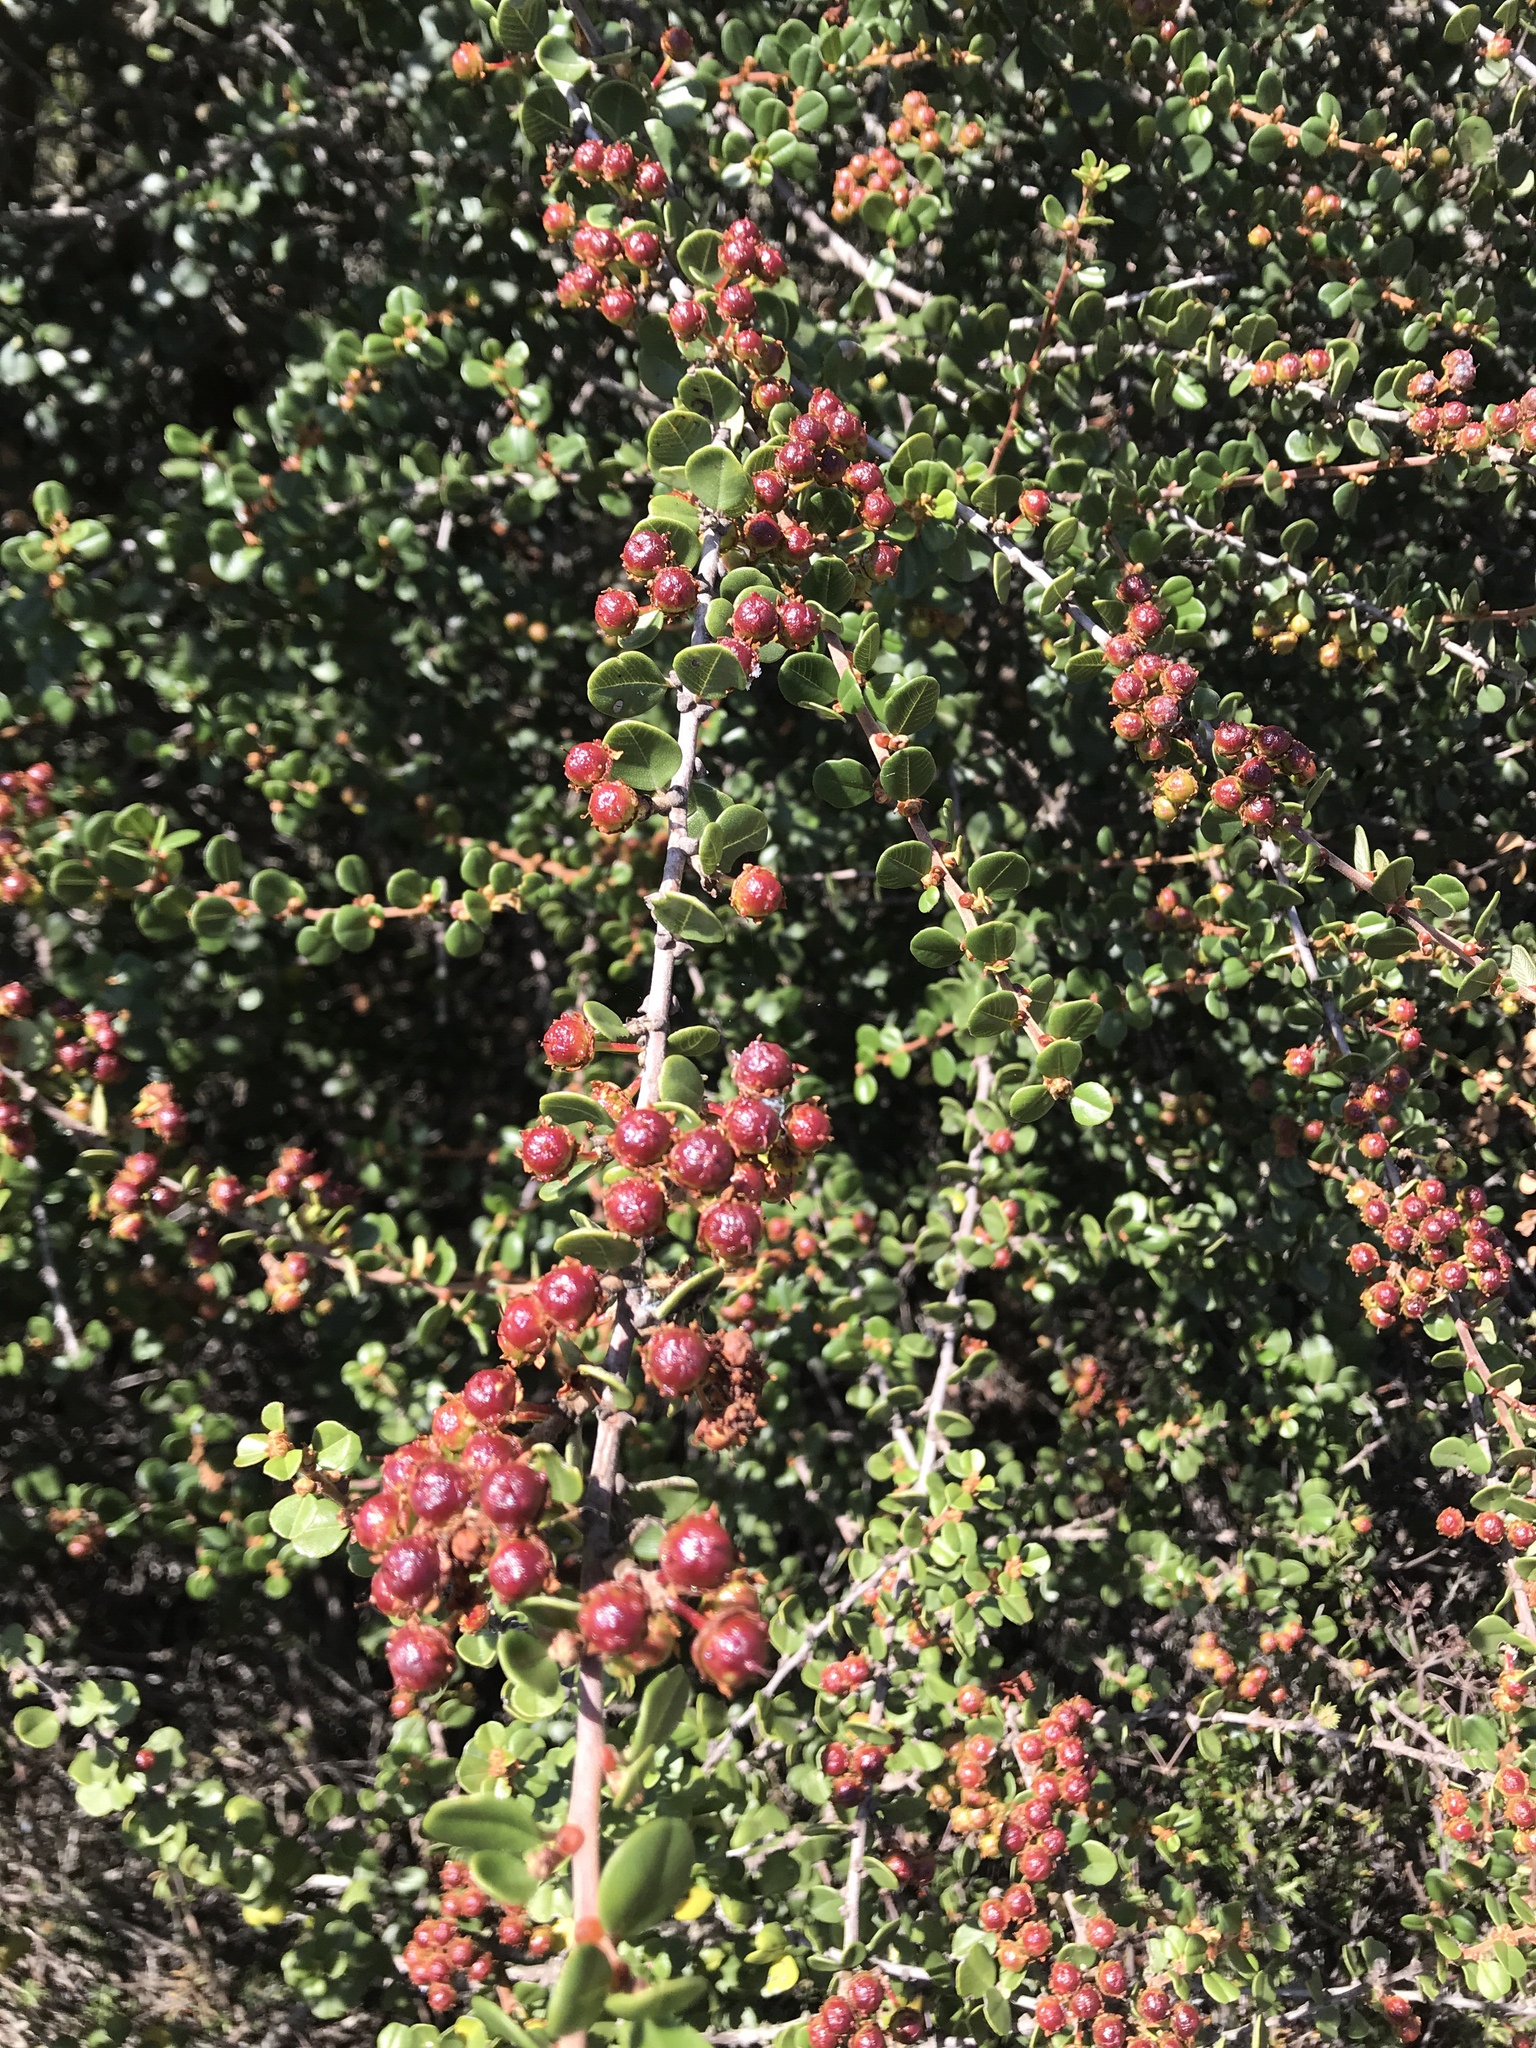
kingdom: Plantae
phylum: Tracheophyta
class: Magnoliopsida
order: Rosales
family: Rhamnaceae
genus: Ceanothus
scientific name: Ceanothus verrucosus
